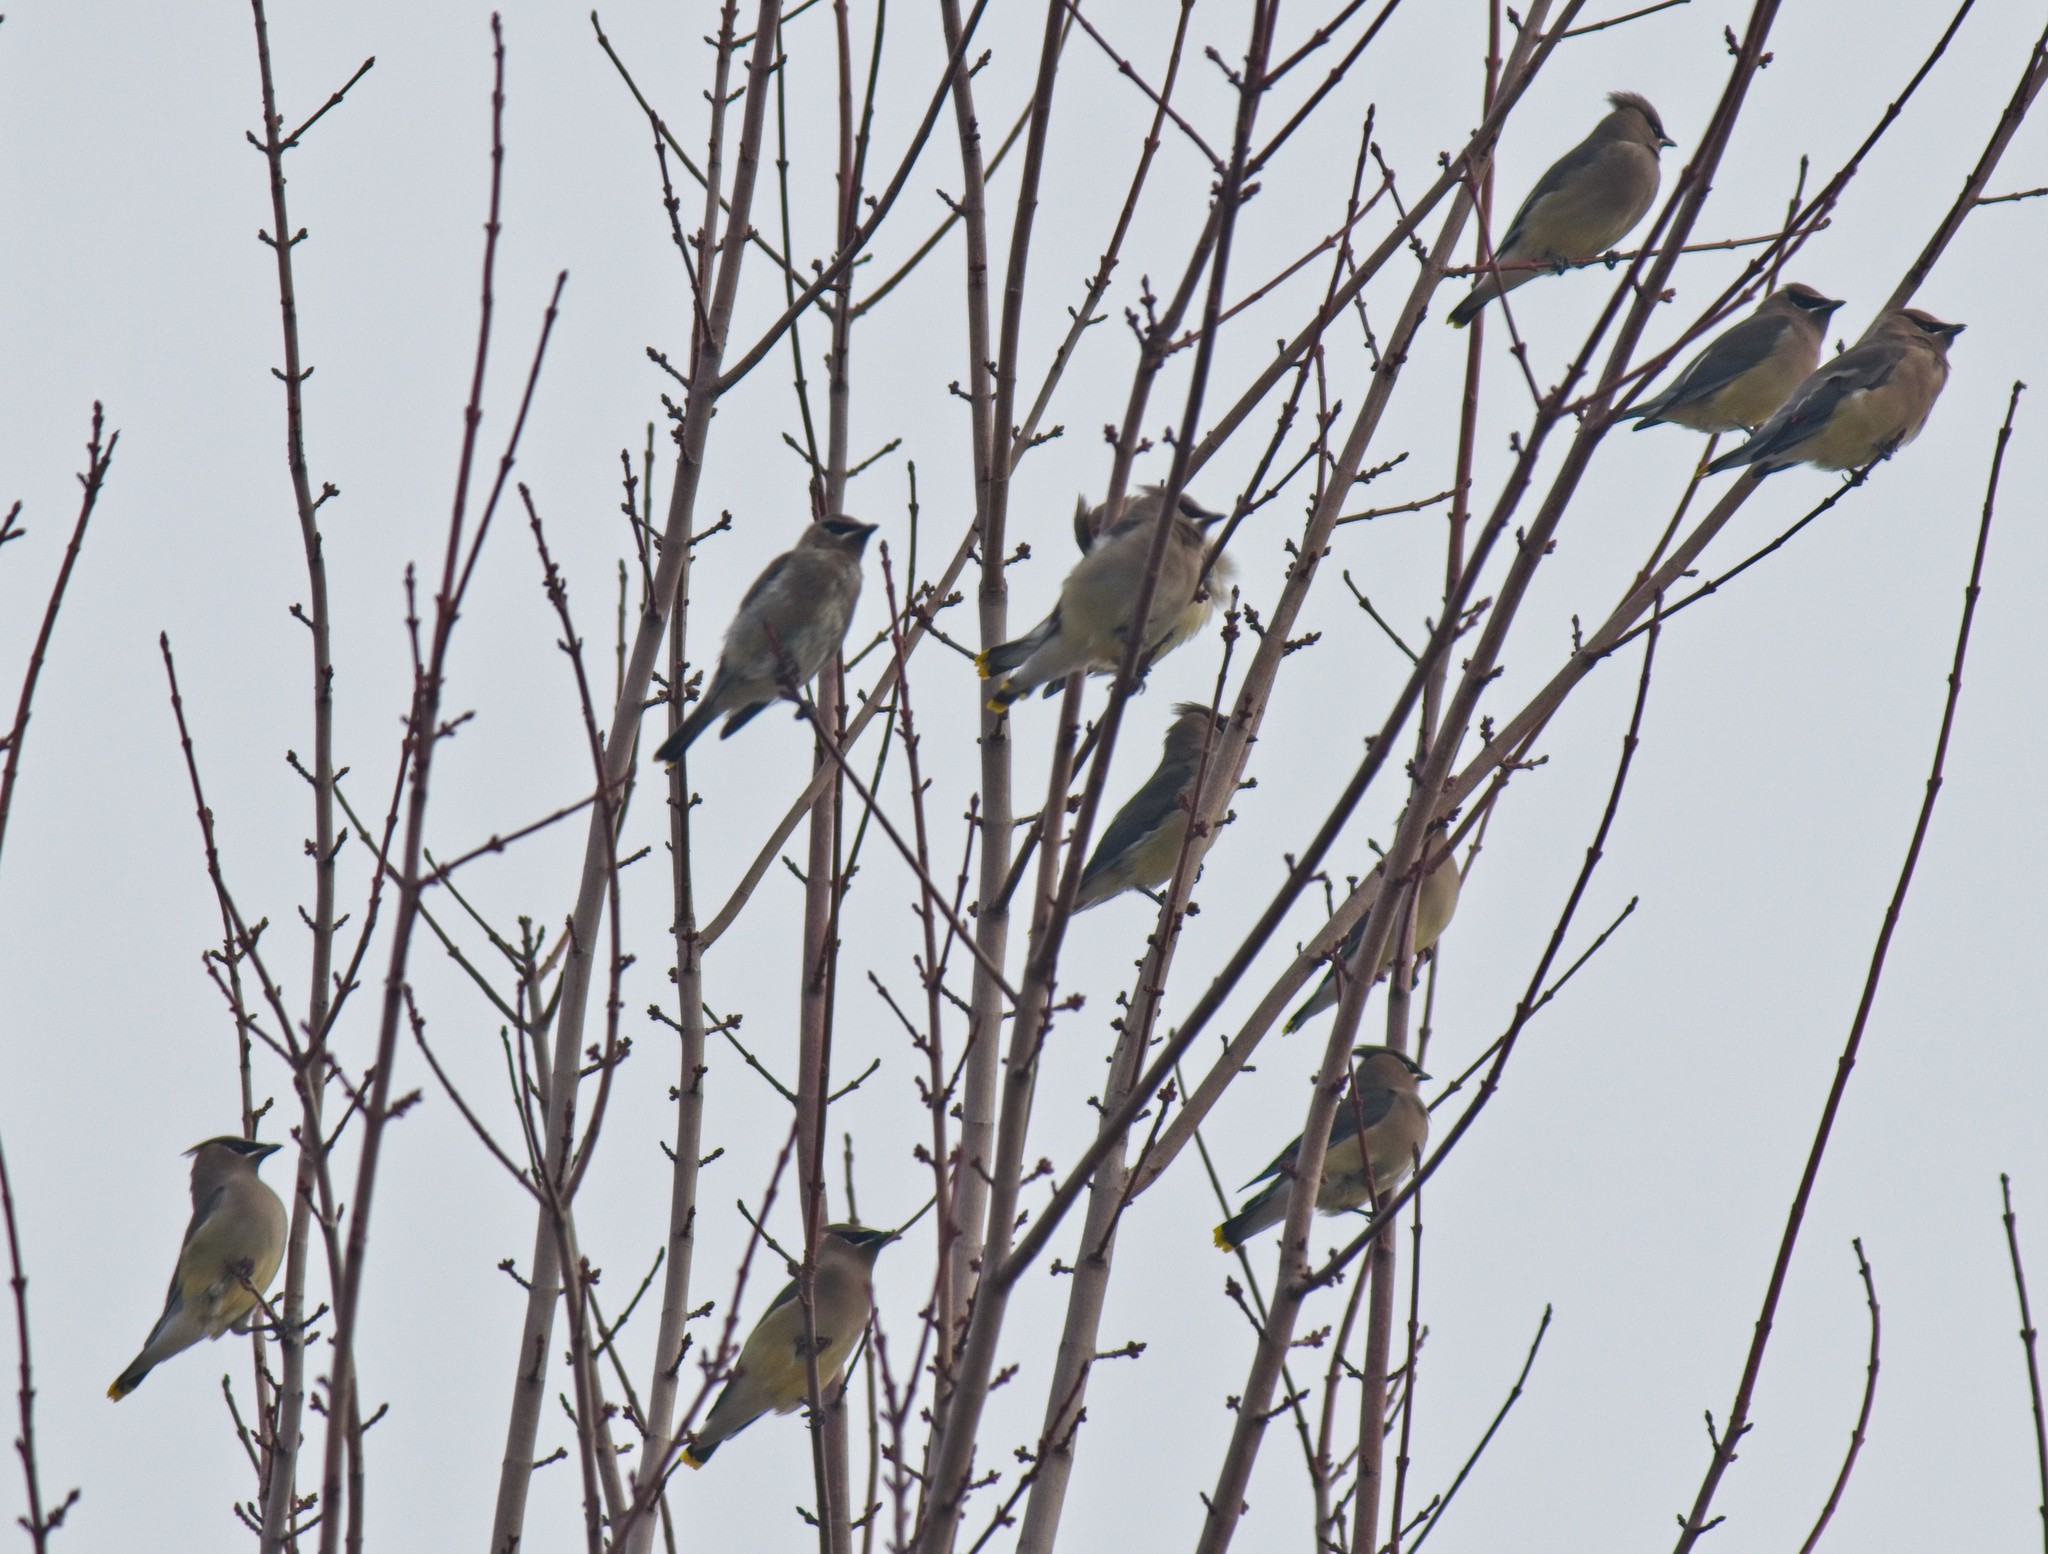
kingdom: Animalia
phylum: Chordata
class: Aves
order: Passeriformes
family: Bombycillidae
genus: Bombycilla
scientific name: Bombycilla cedrorum
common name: Cedar waxwing
